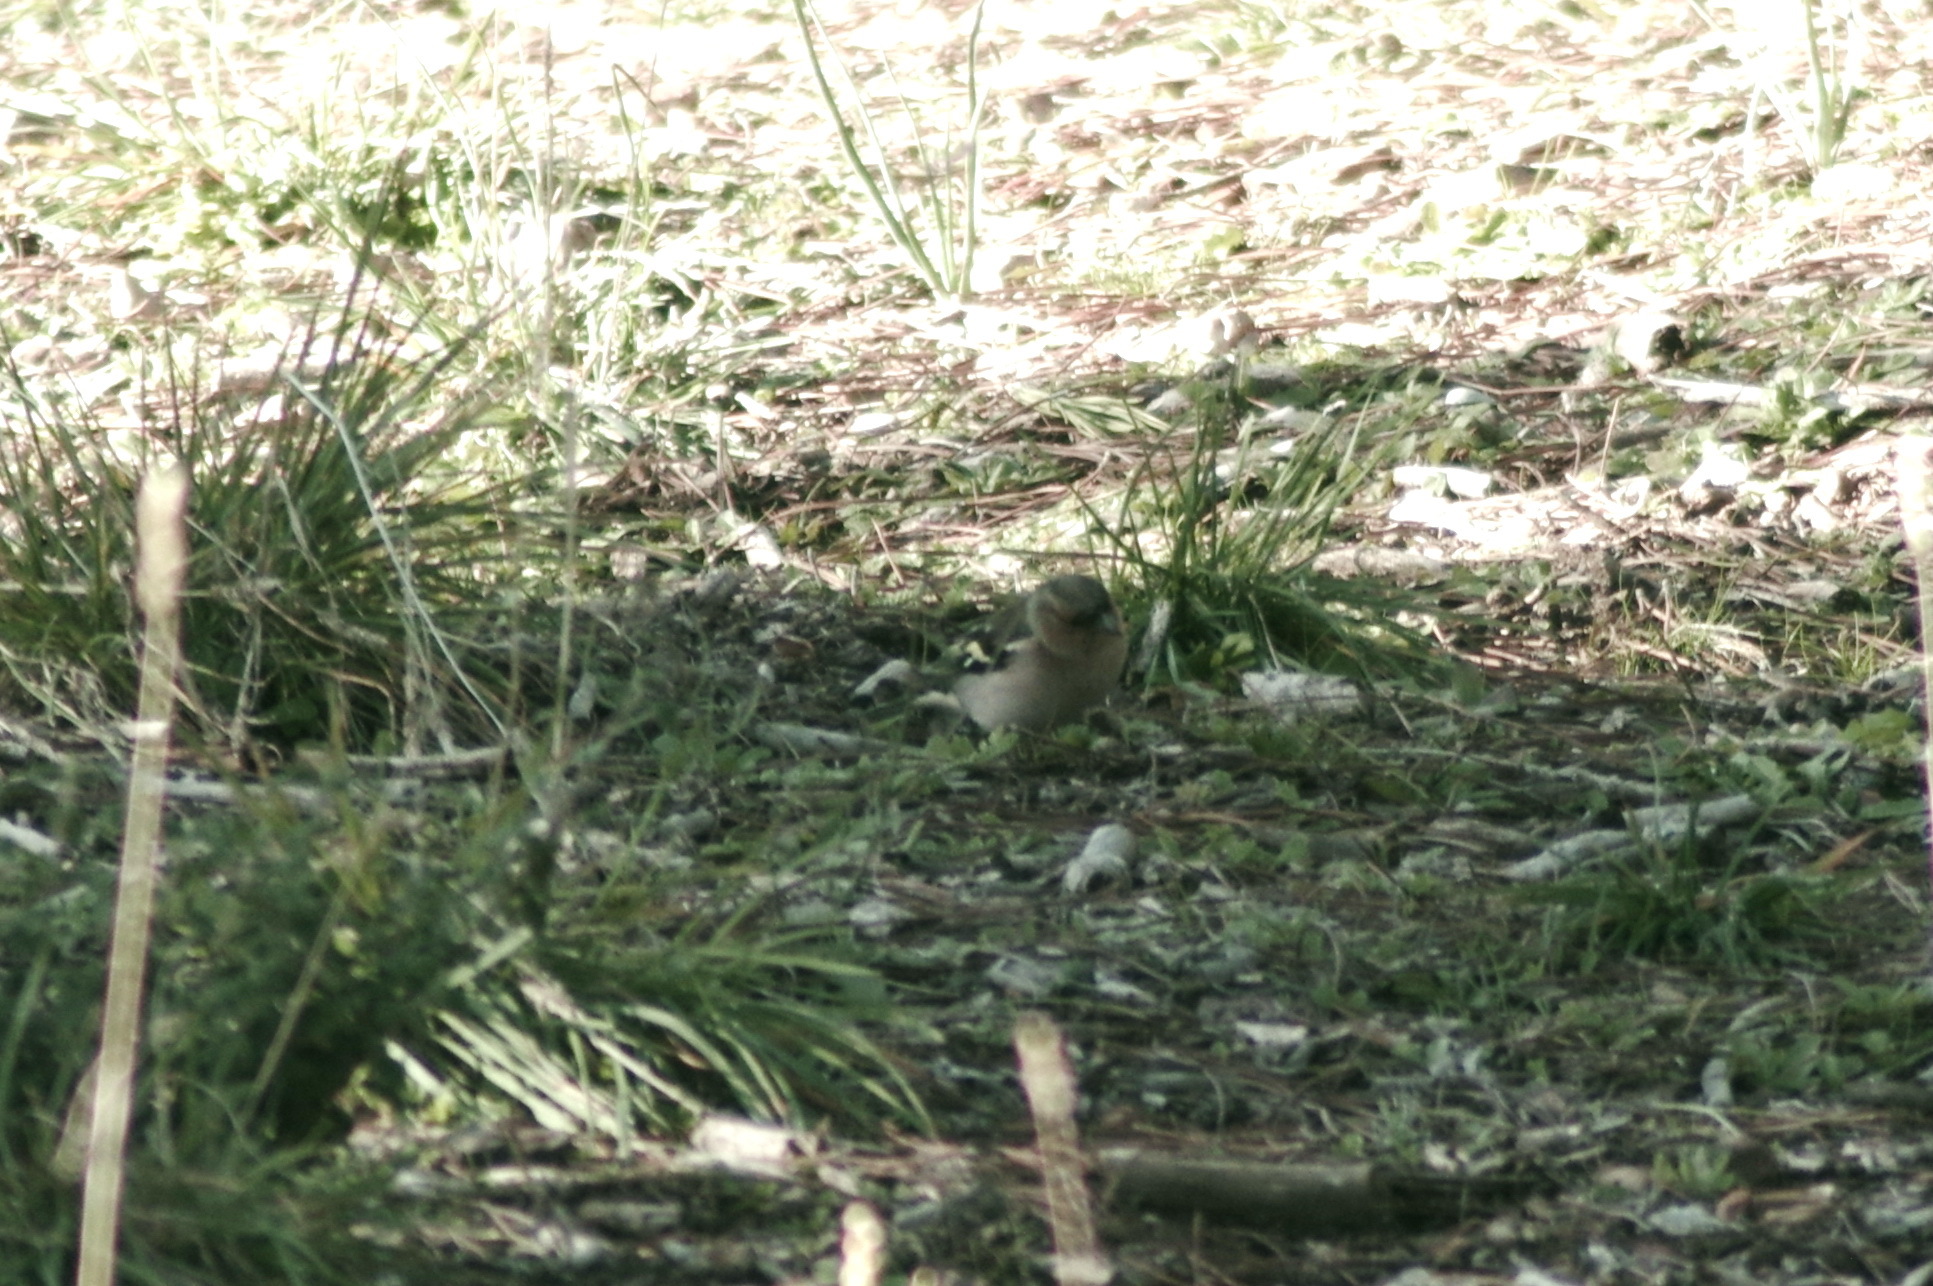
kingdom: Animalia
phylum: Chordata
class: Aves
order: Passeriformes
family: Fringillidae
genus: Fringilla
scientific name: Fringilla coelebs
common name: Common chaffinch
